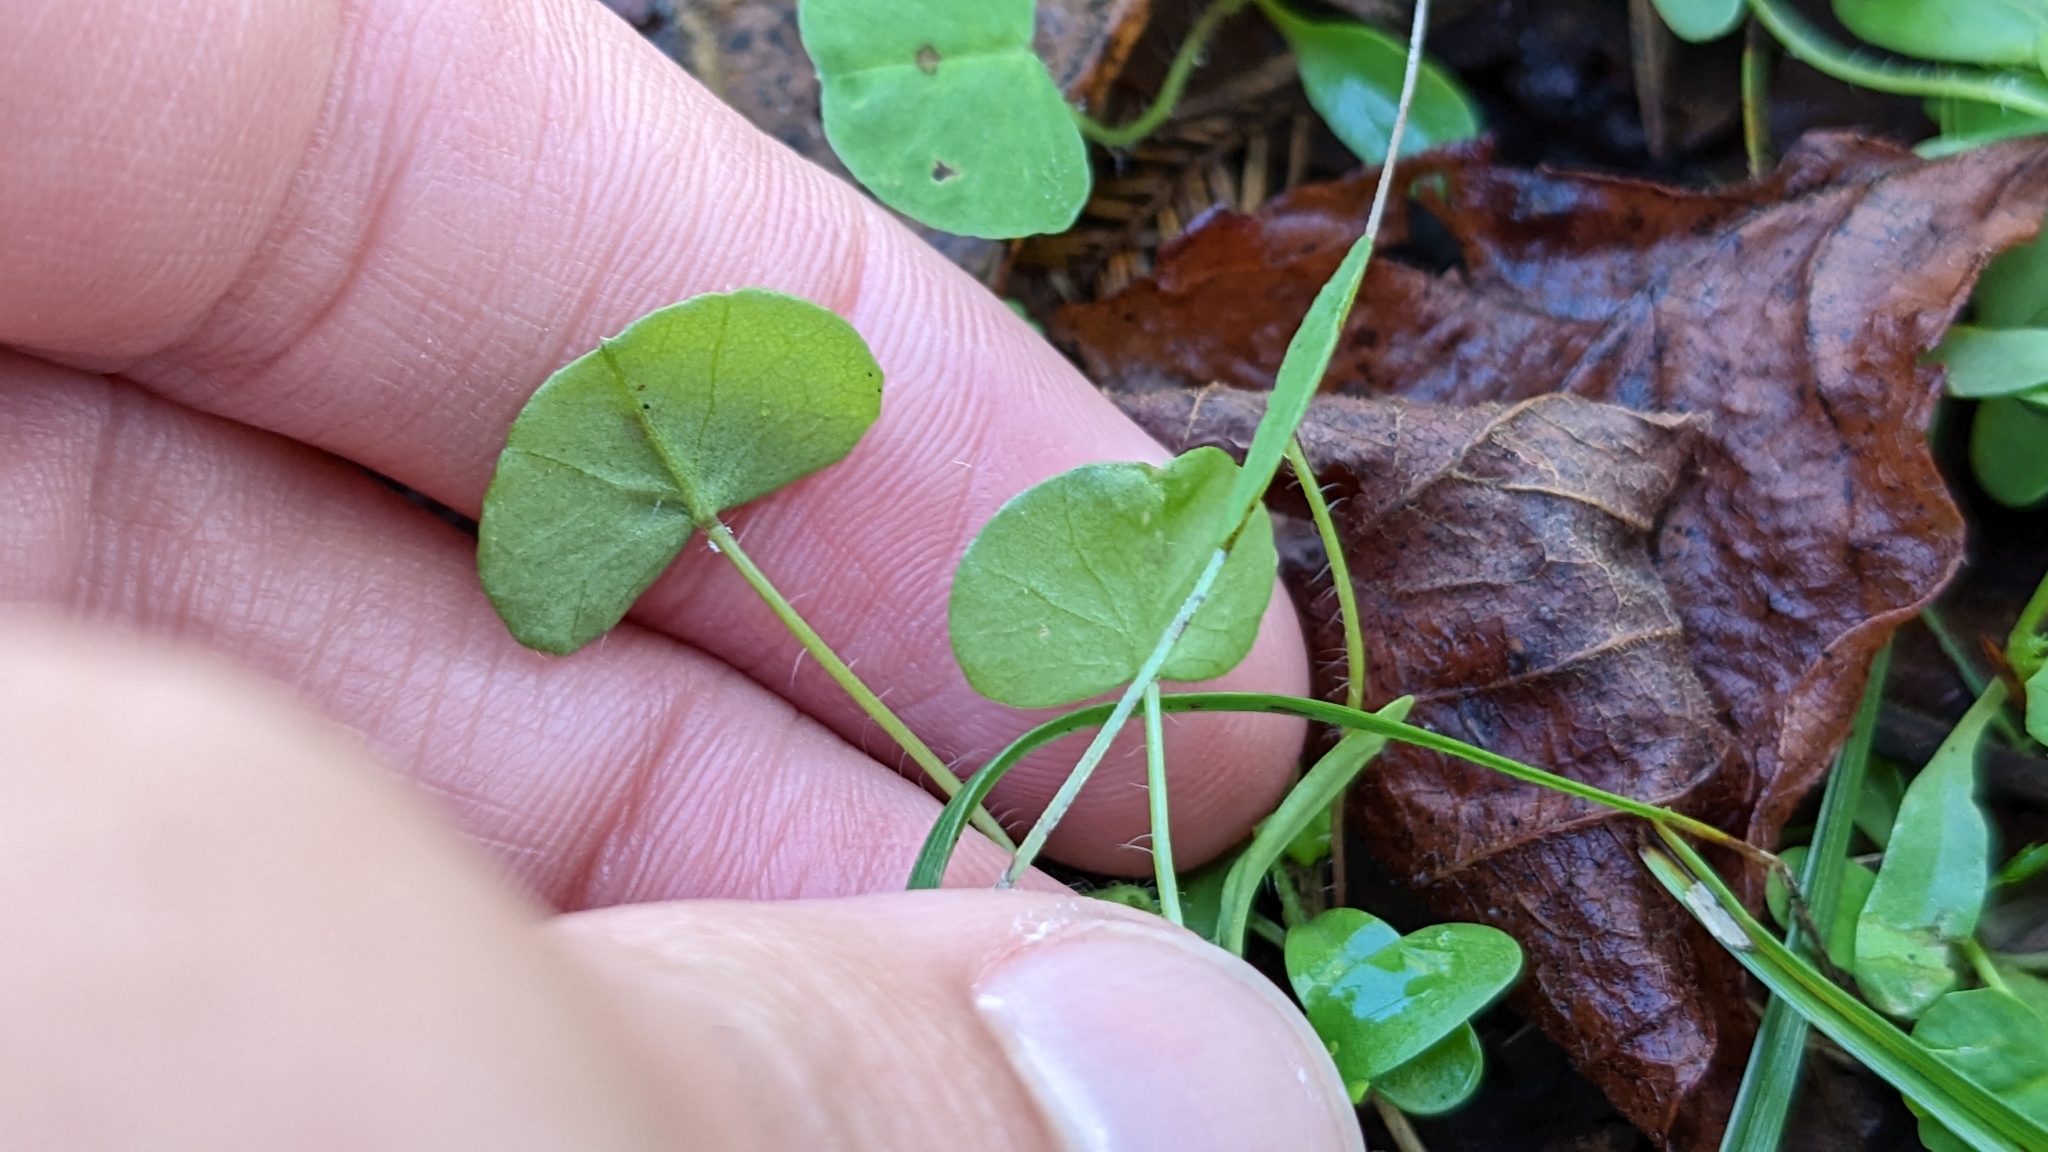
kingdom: Plantae
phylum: Tracheophyta
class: Magnoliopsida
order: Fabales
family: Fabaceae
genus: Medicago
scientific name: Medicago arabica
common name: Spotted medick
